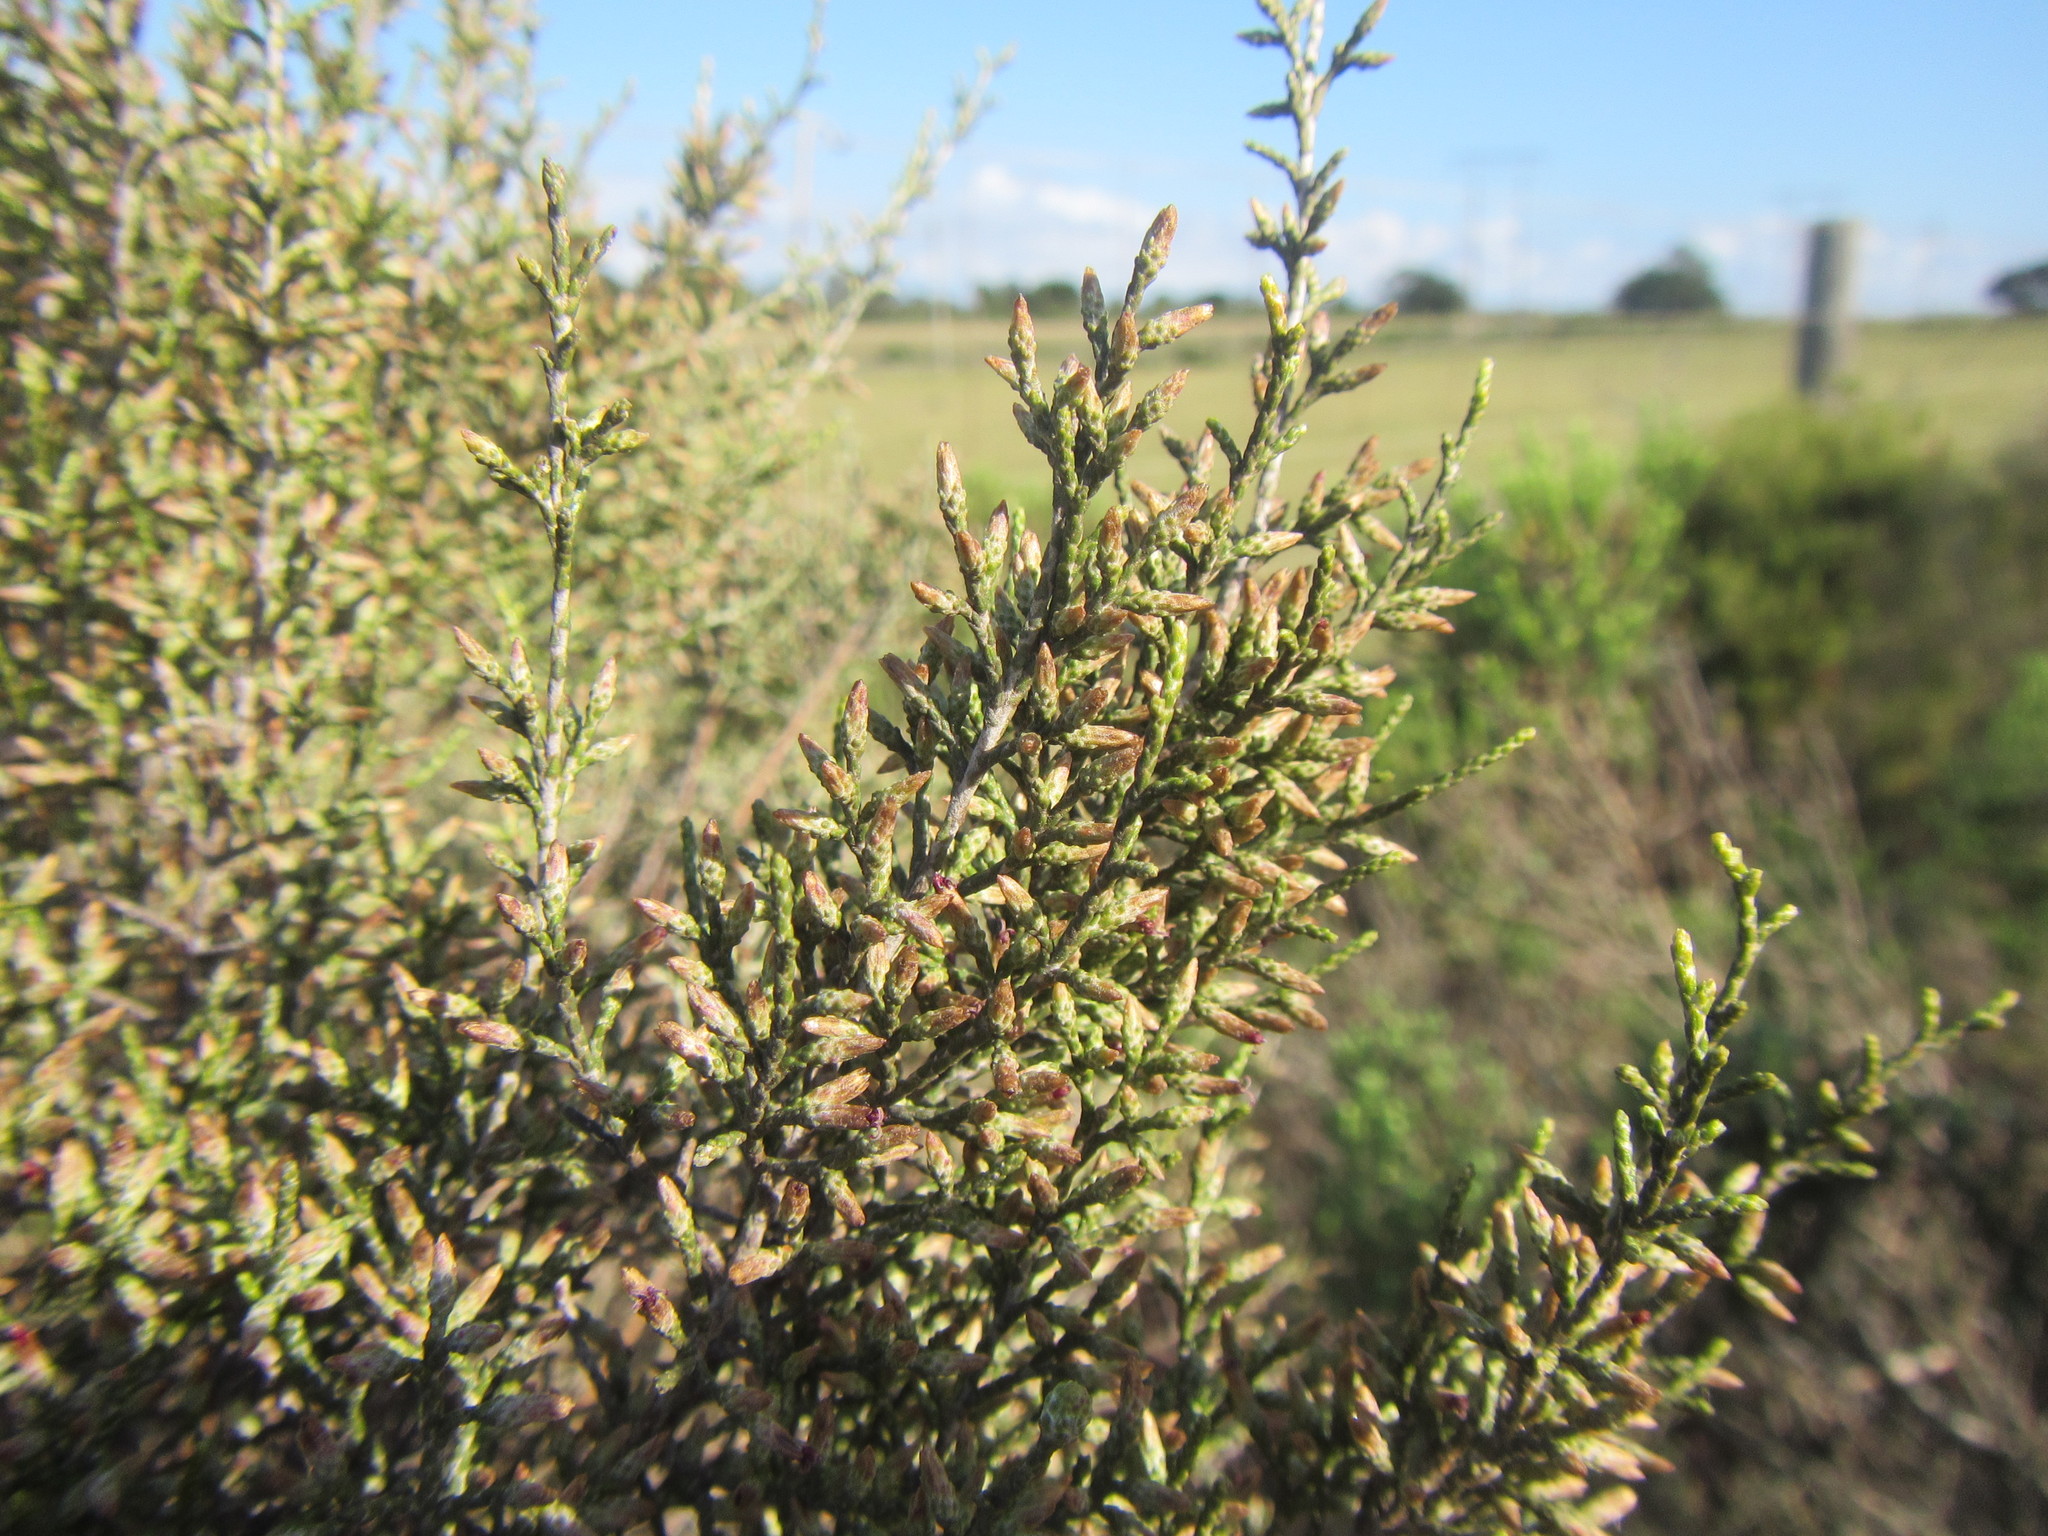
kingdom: Plantae
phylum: Tracheophyta
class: Magnoliopsida
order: Asterales
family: Asteraceae
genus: Dicerothamnus
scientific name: Dicerothamnus rhinocerotis
